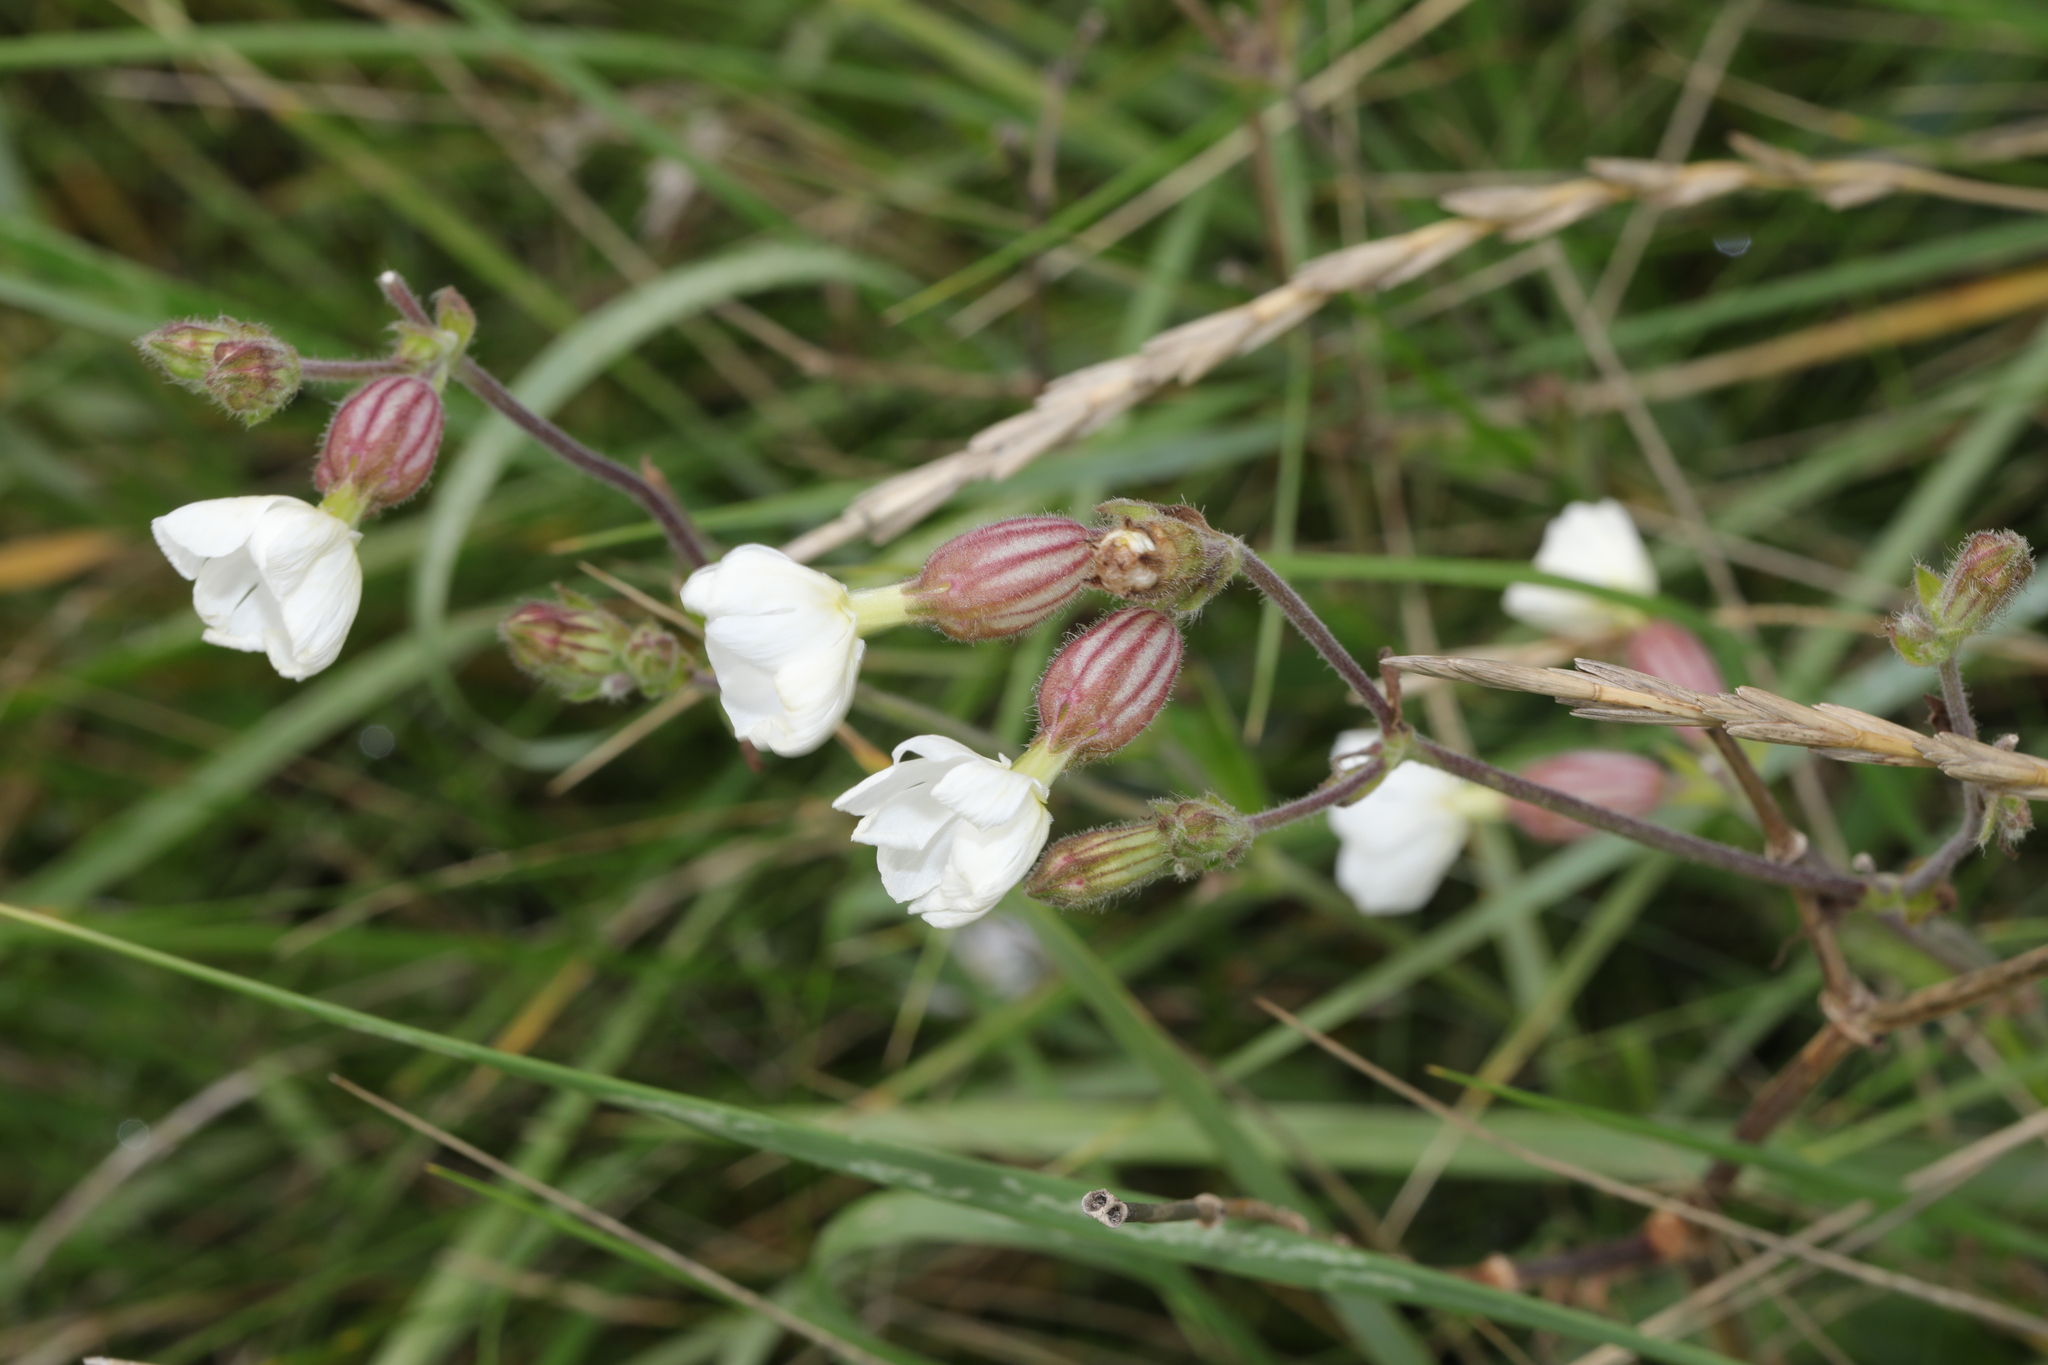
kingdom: Plantae
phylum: Tracheophyta
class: Magnoliopsida
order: Caryophyllales
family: Caryophyllaceae
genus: Silene
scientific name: Silene latifolia
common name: White campion
